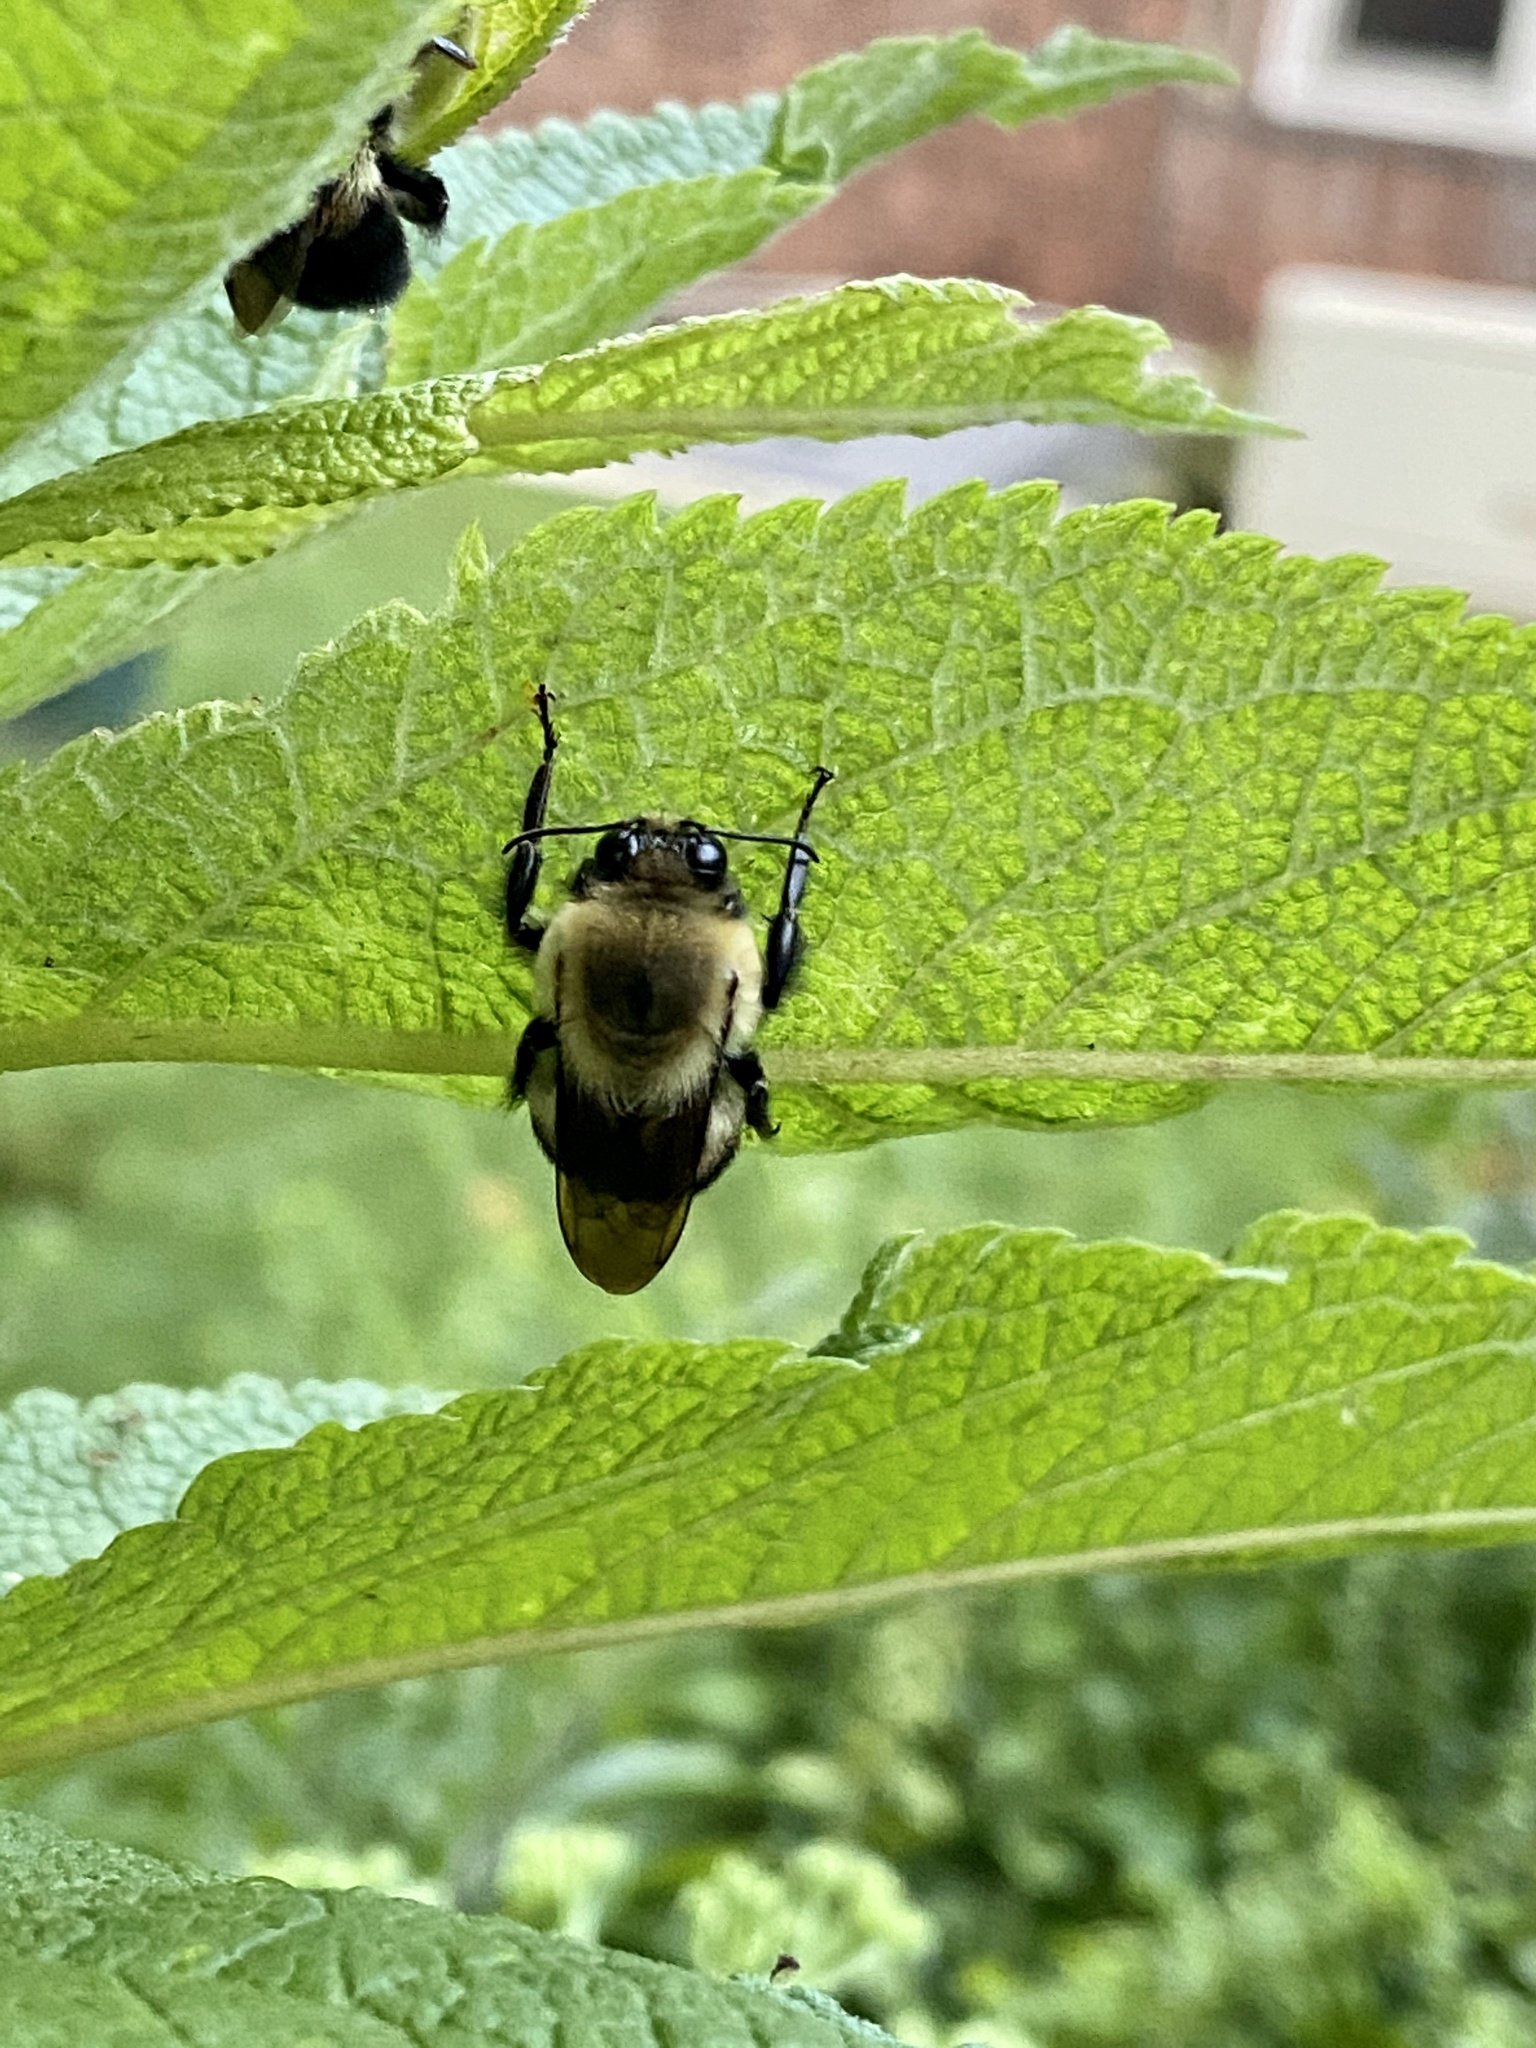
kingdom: Animalia
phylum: Arthropoda
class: Insecta
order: Hymenoptera
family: Apidae
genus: Bombus
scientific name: Bombus griseocollis
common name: Brown-belted bumble bee
